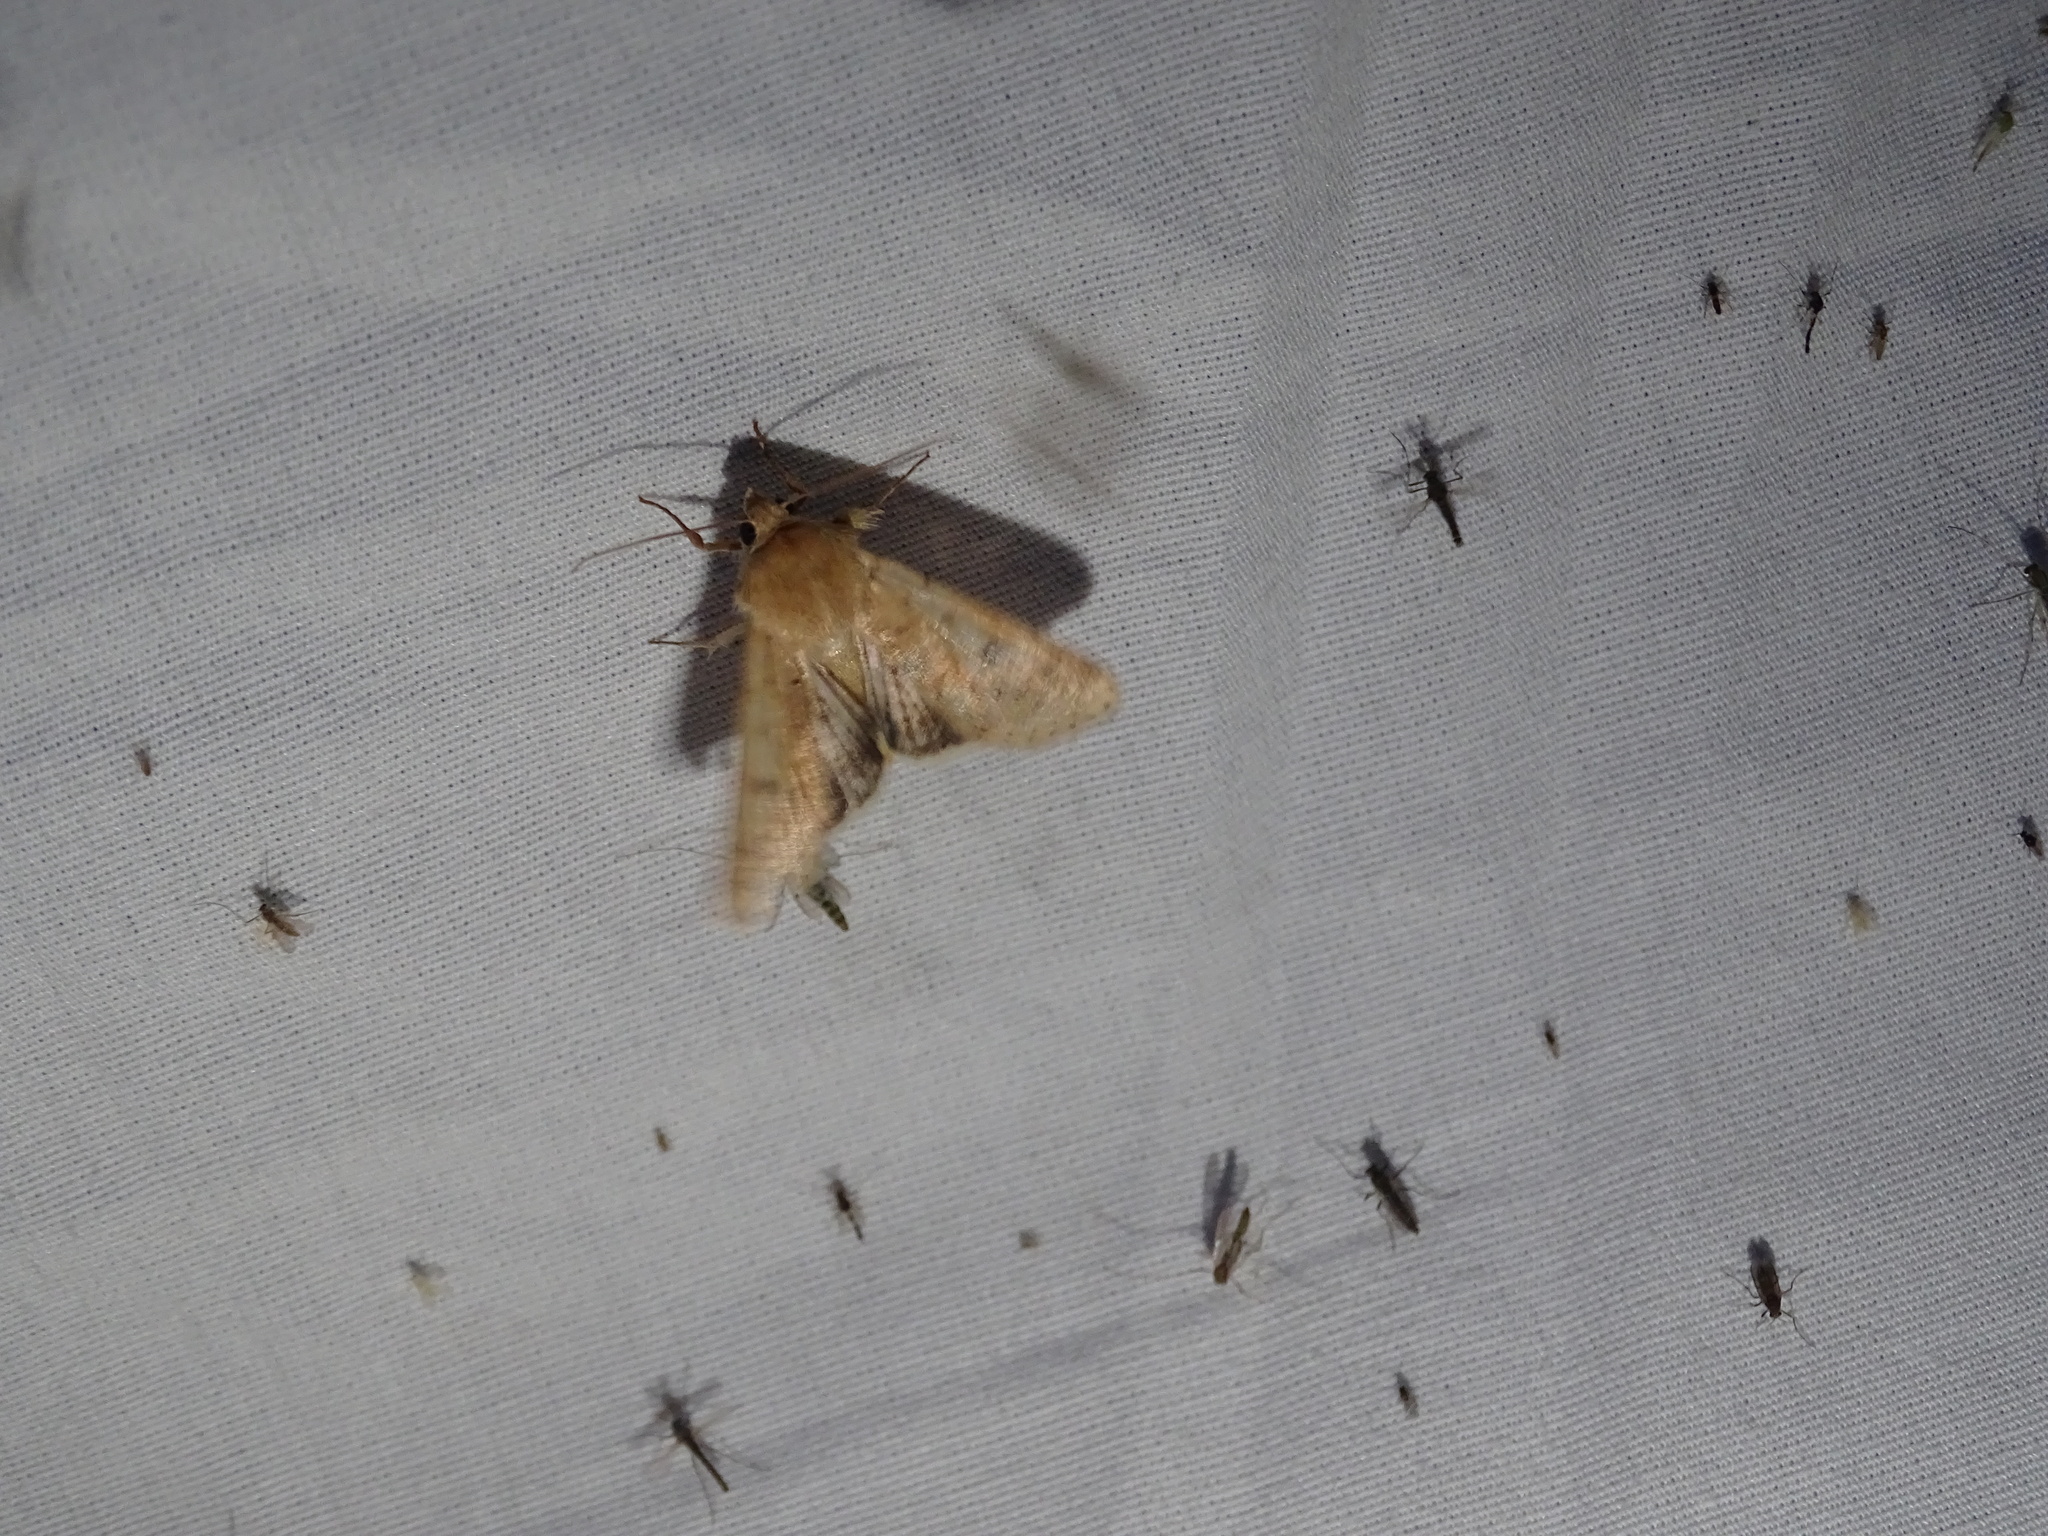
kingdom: Animalia
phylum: Arthropoda
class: Insecta
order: Lepidoptera
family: Noctuidae
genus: Helicoverpa
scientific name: Helicoverpa zea
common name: Bollworm
